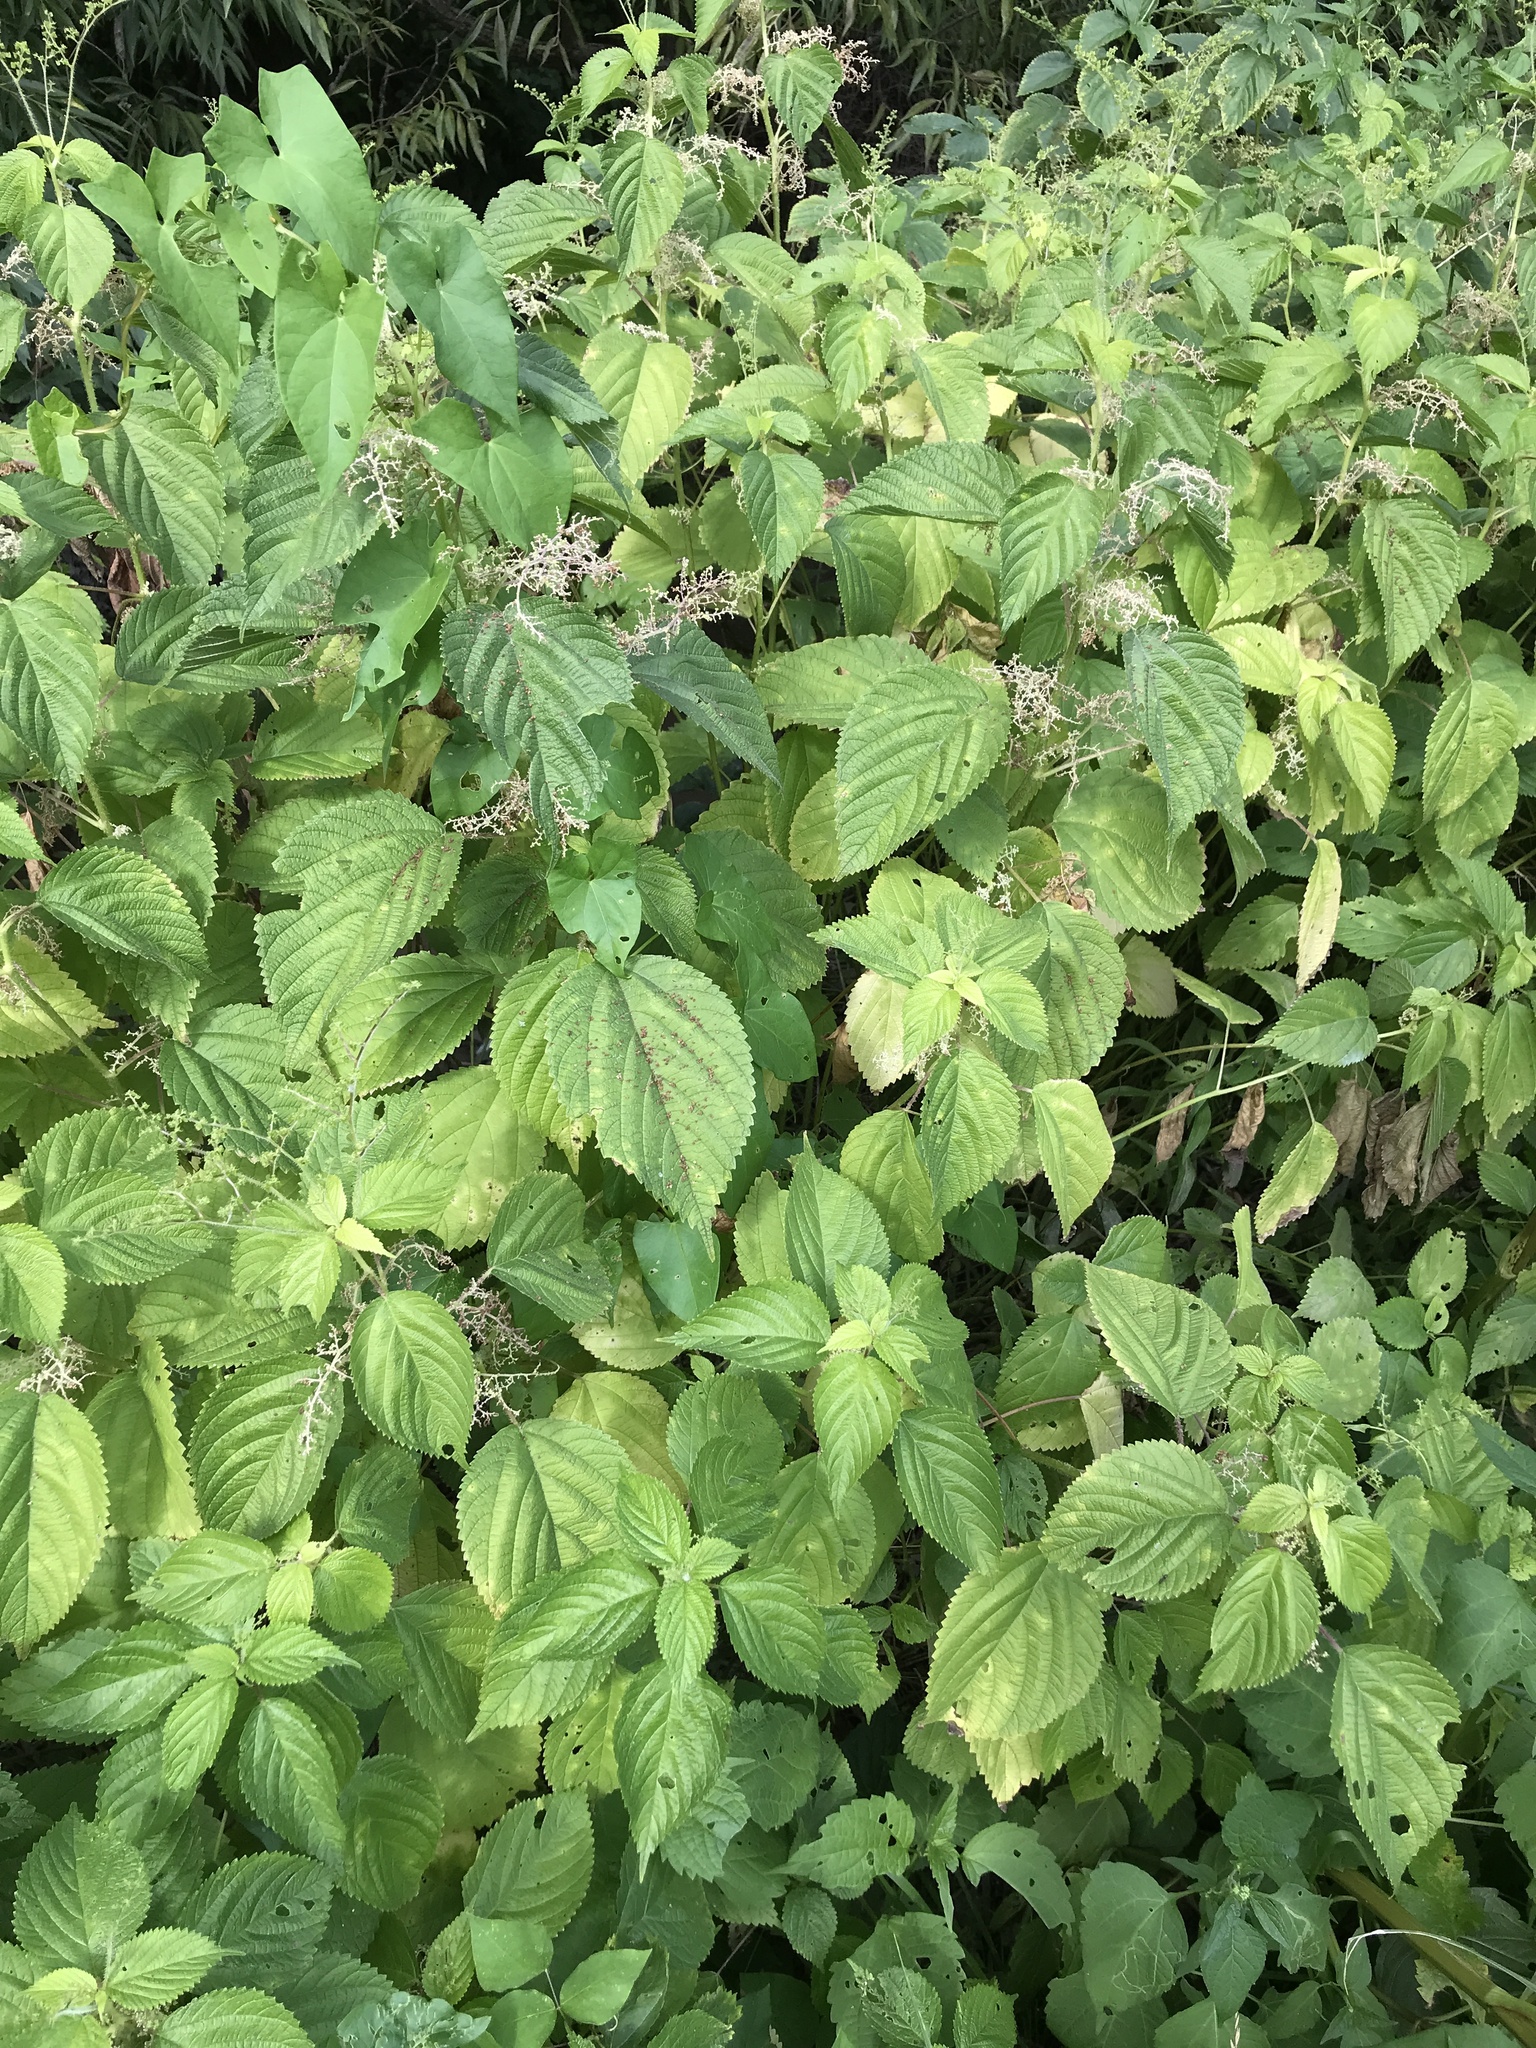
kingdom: Plantae
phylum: Tracheophyta
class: Magnoliopsida
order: Rosales
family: Urticaceae
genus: Laportea
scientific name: Laportea canadensis
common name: Canada nettle
